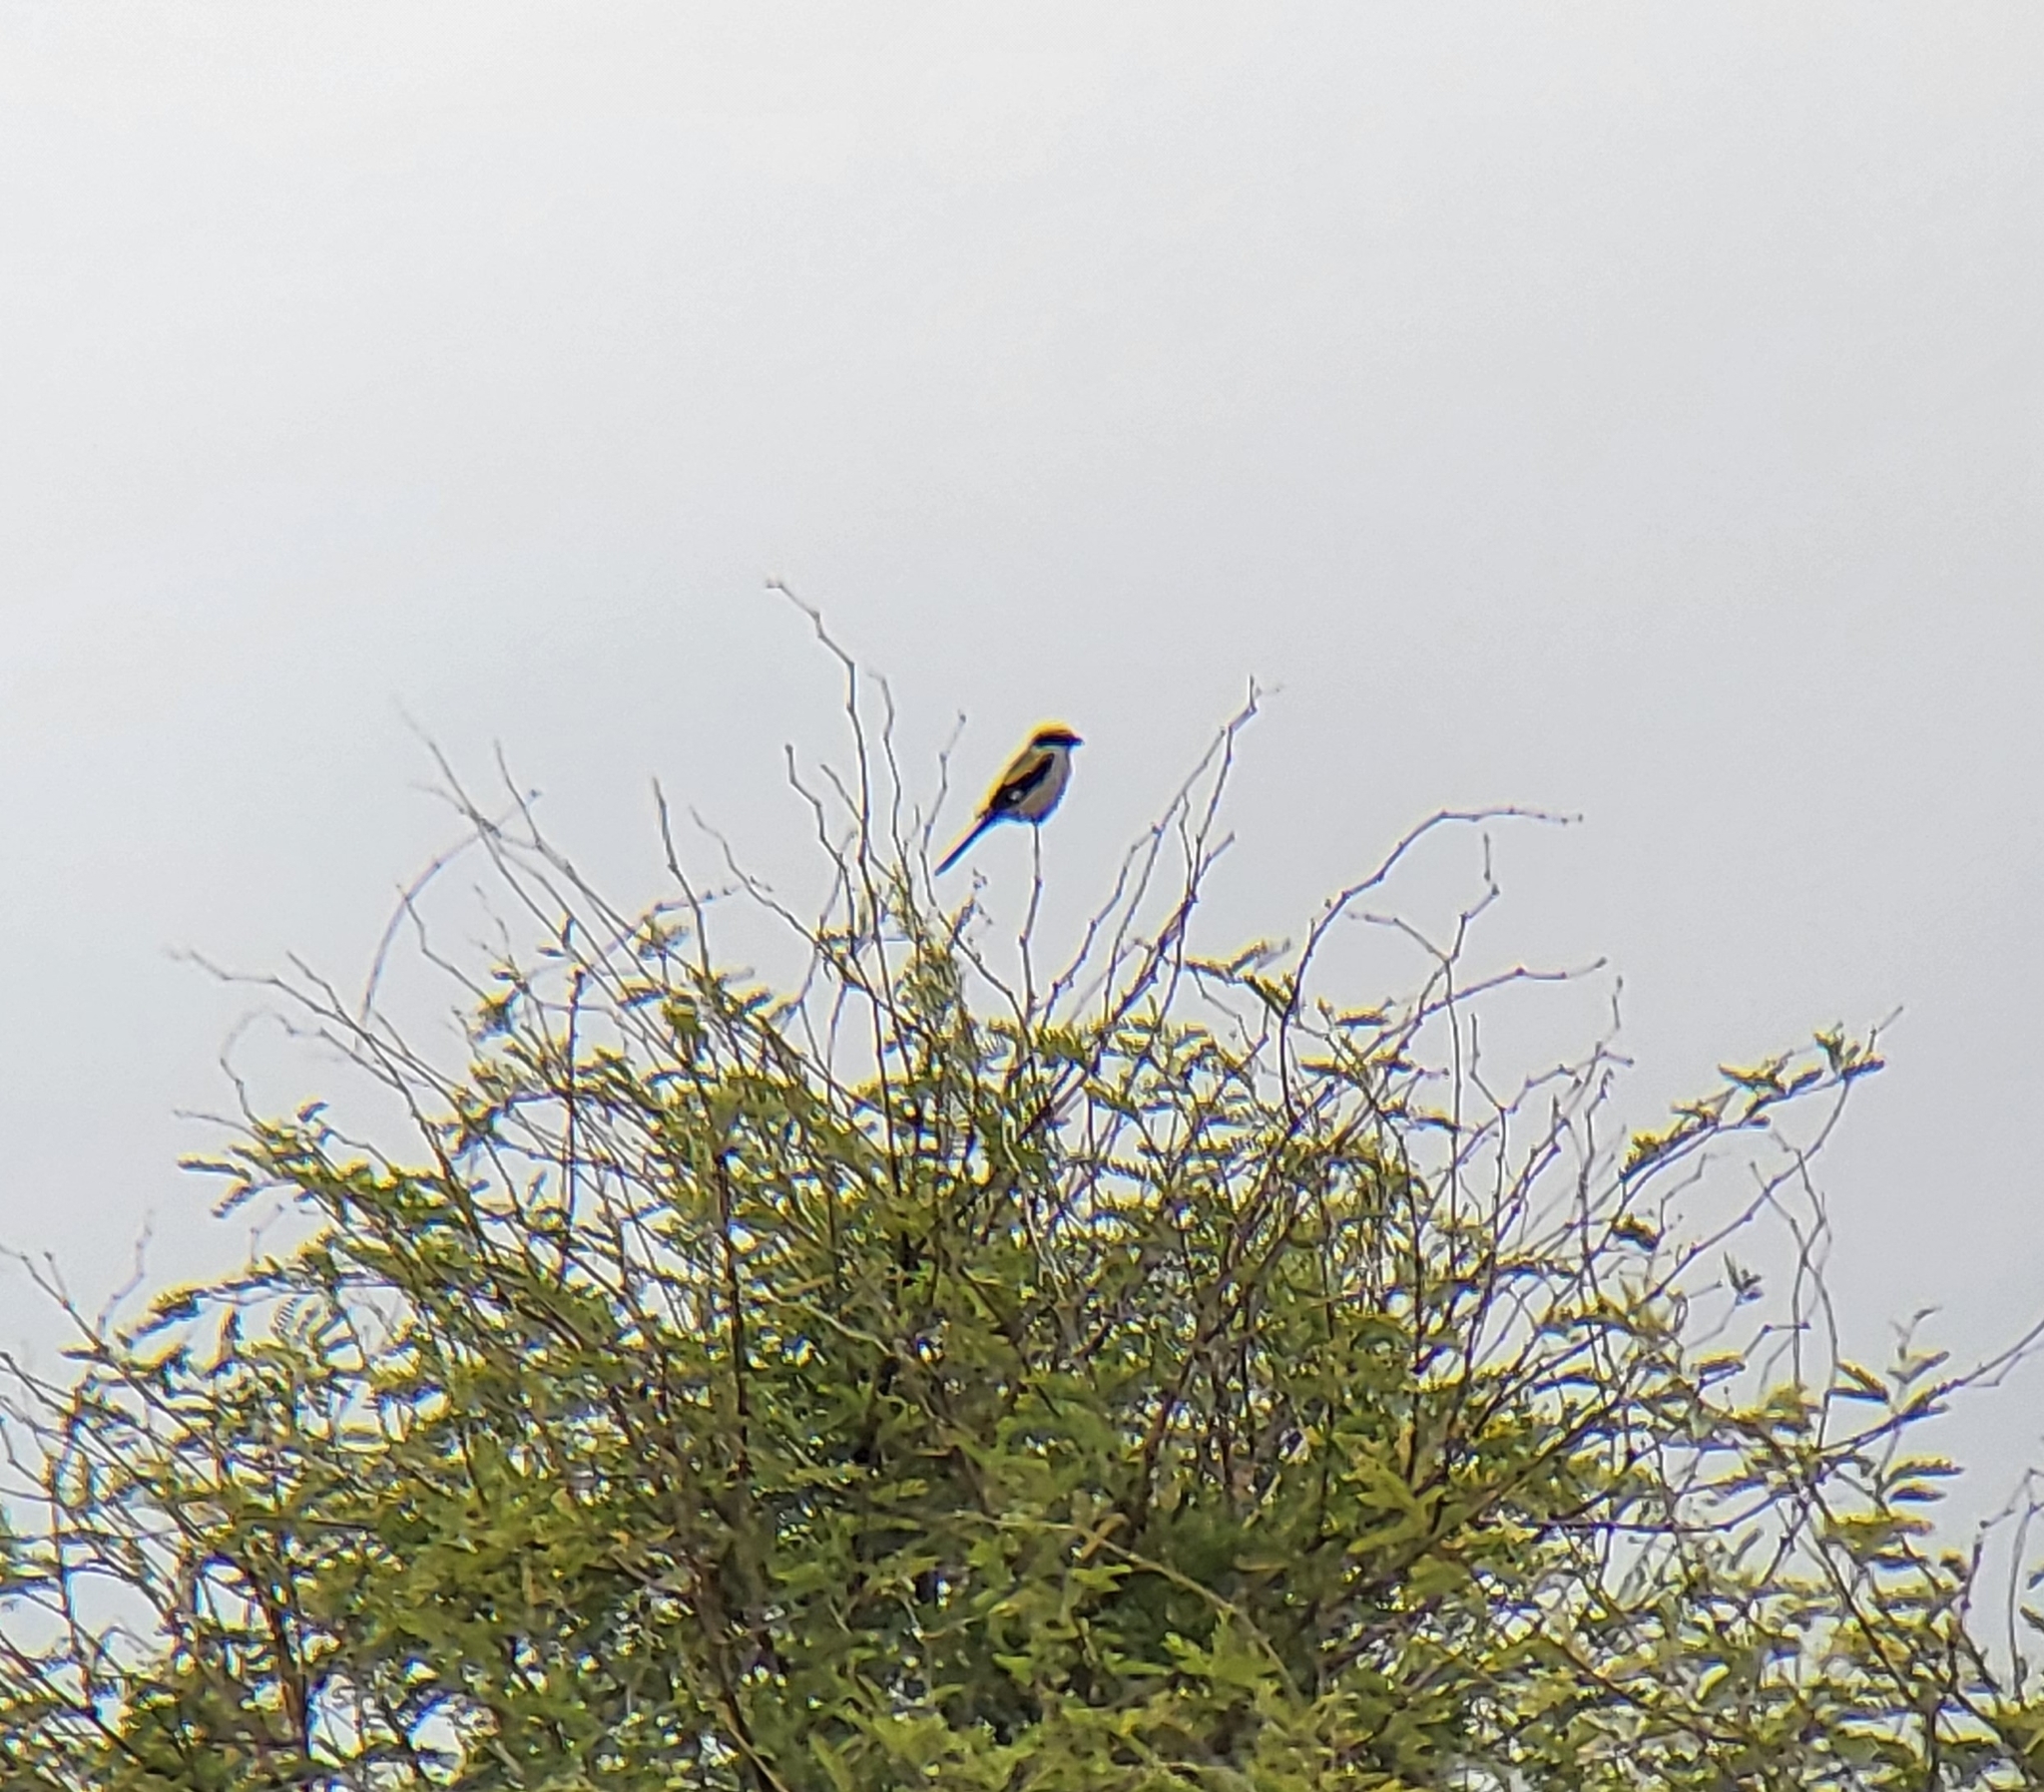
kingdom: Animalia
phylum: Chordata
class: Aves
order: Passeriformes
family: Laniidae
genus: Lanius
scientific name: Lanius ludovicianus
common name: Loggerhead shrike
